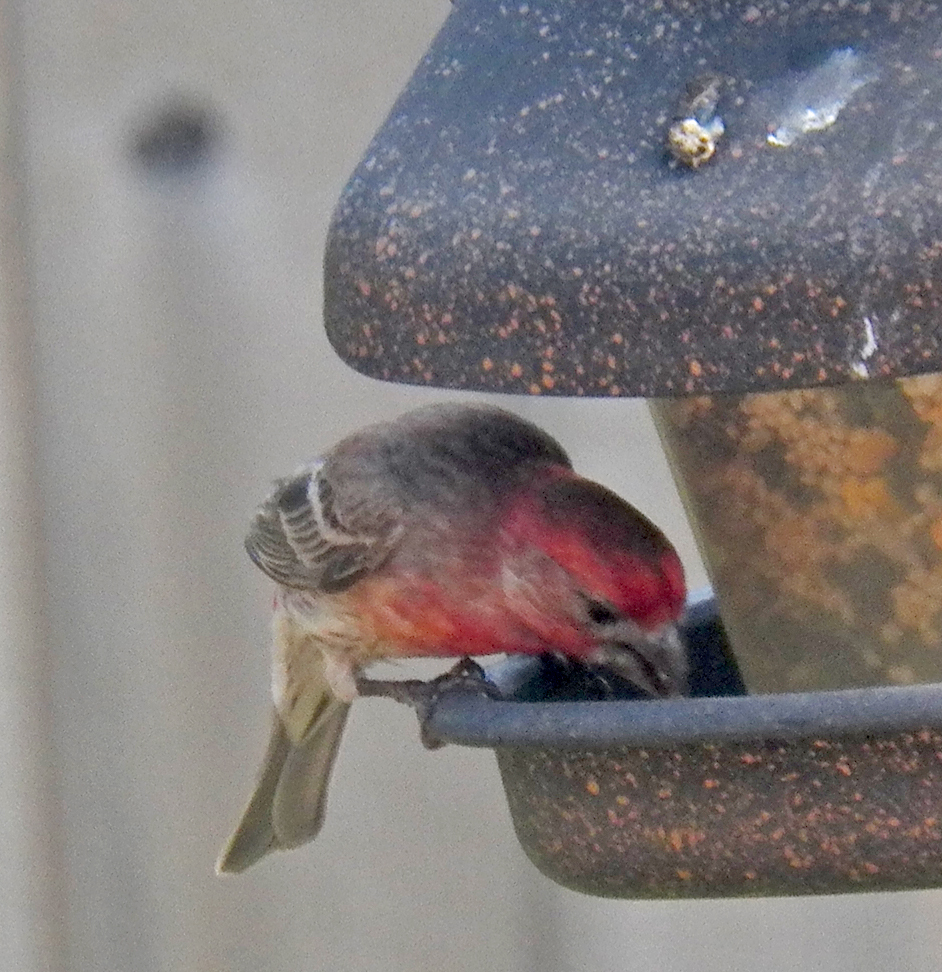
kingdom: Animalia
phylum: Chordata
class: Aves
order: Passeriformes
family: Fringillidae
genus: Haemorhous
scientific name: Haemorhous mexicanus
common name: House finch
